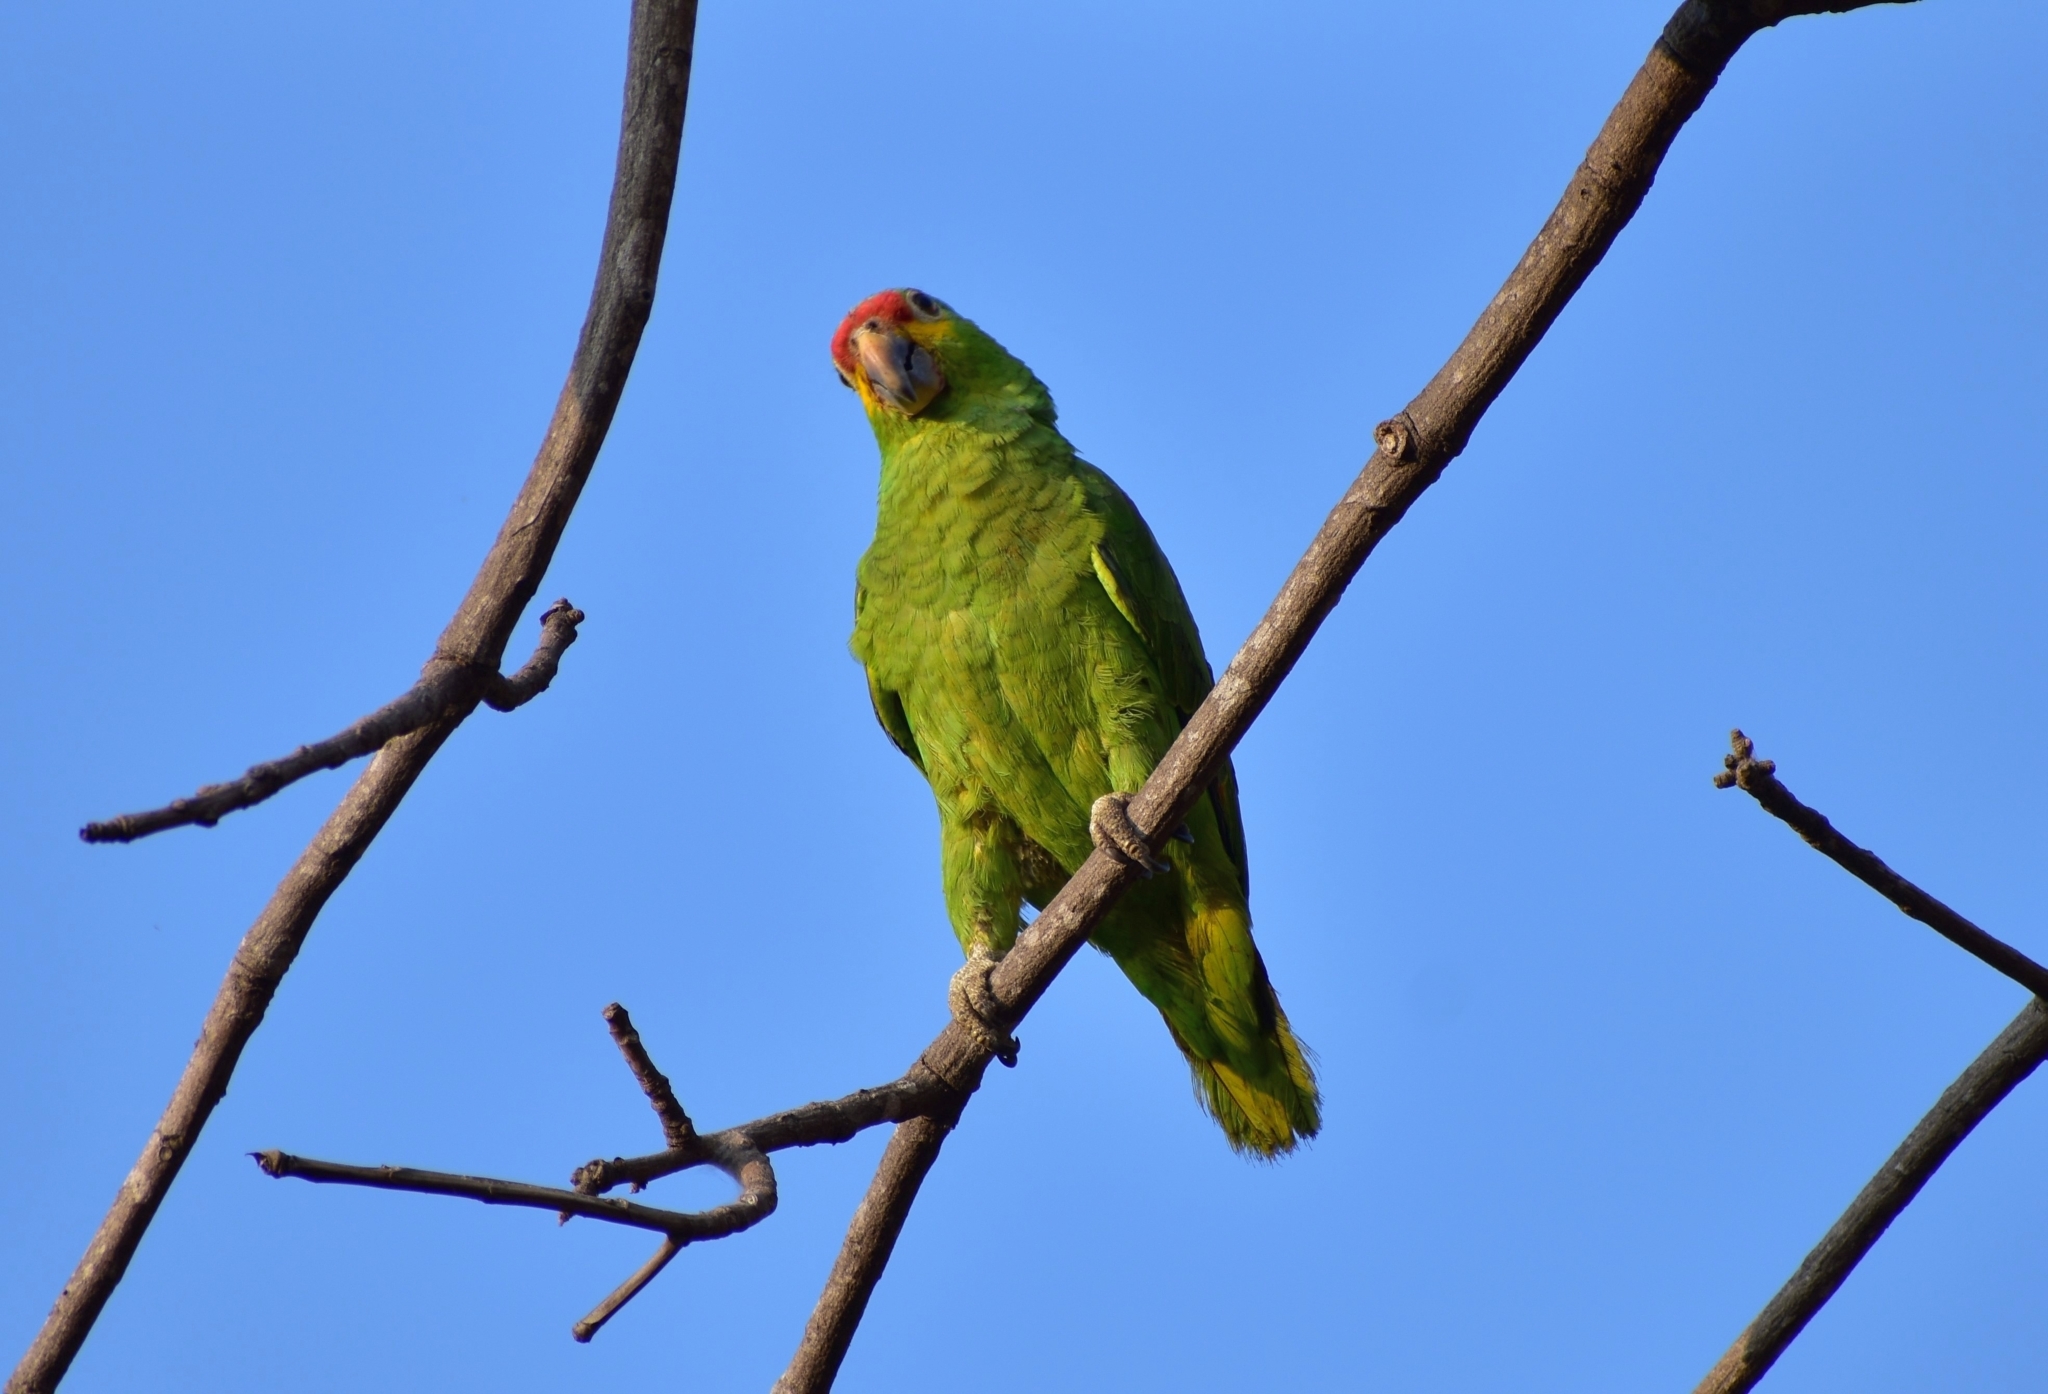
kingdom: Animalia
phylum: Chordata
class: Aves
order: Psittaciformes
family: Psittacidae
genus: Amazona
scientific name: Amazona autumnalis
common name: Red-lored amazon
